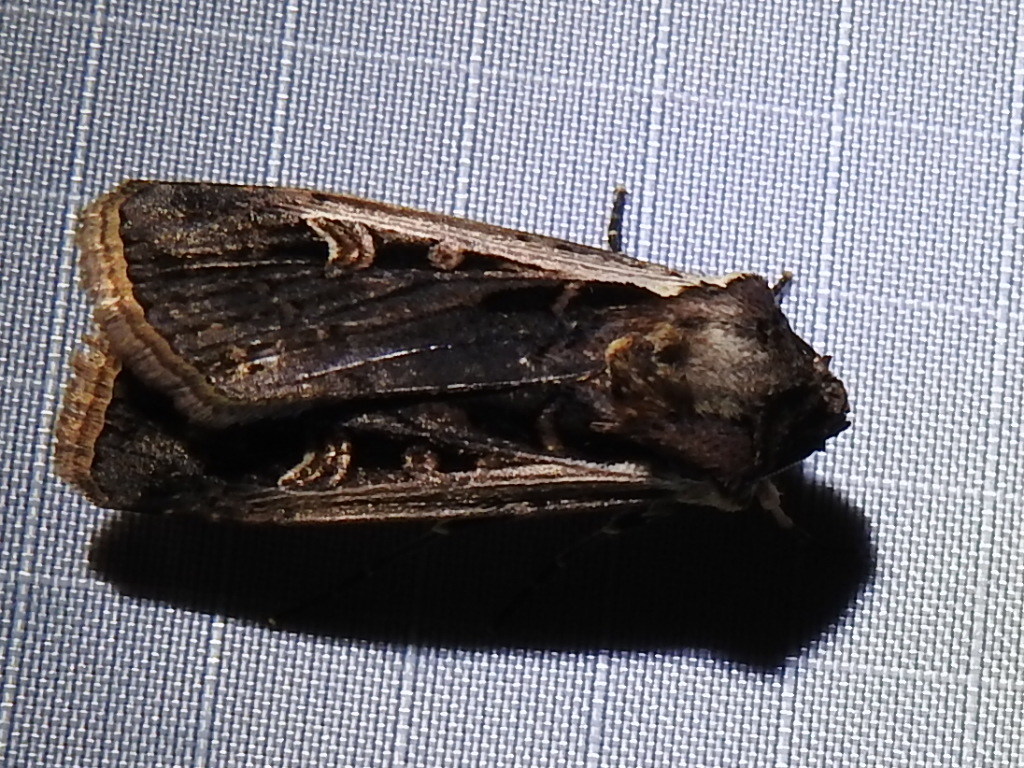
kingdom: Animalia
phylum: Arthropoda
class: Insecta
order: Lepidoptera
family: Noctuidae
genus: Striacosta
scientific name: Striacosta albicosta
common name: Western bean cutworm moth
